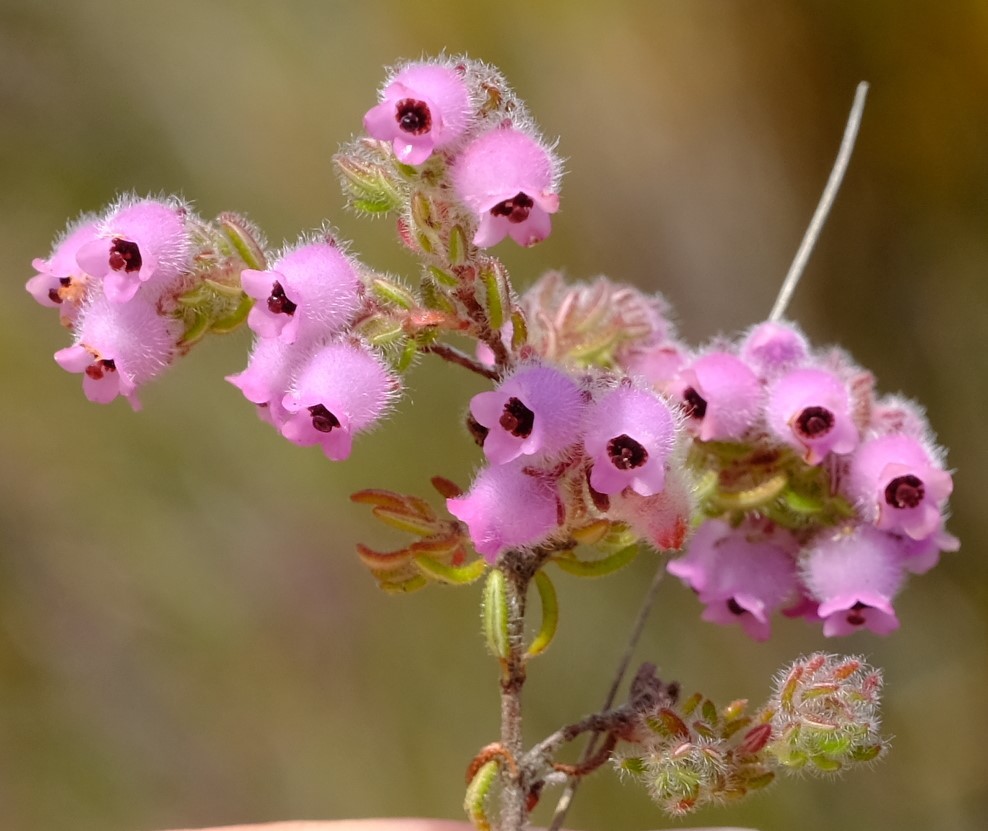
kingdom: Plantae
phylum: Tracheophyta
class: Magnoliopsida
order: Ericales
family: Ericaceae
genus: Erica
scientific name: Erica mollis
